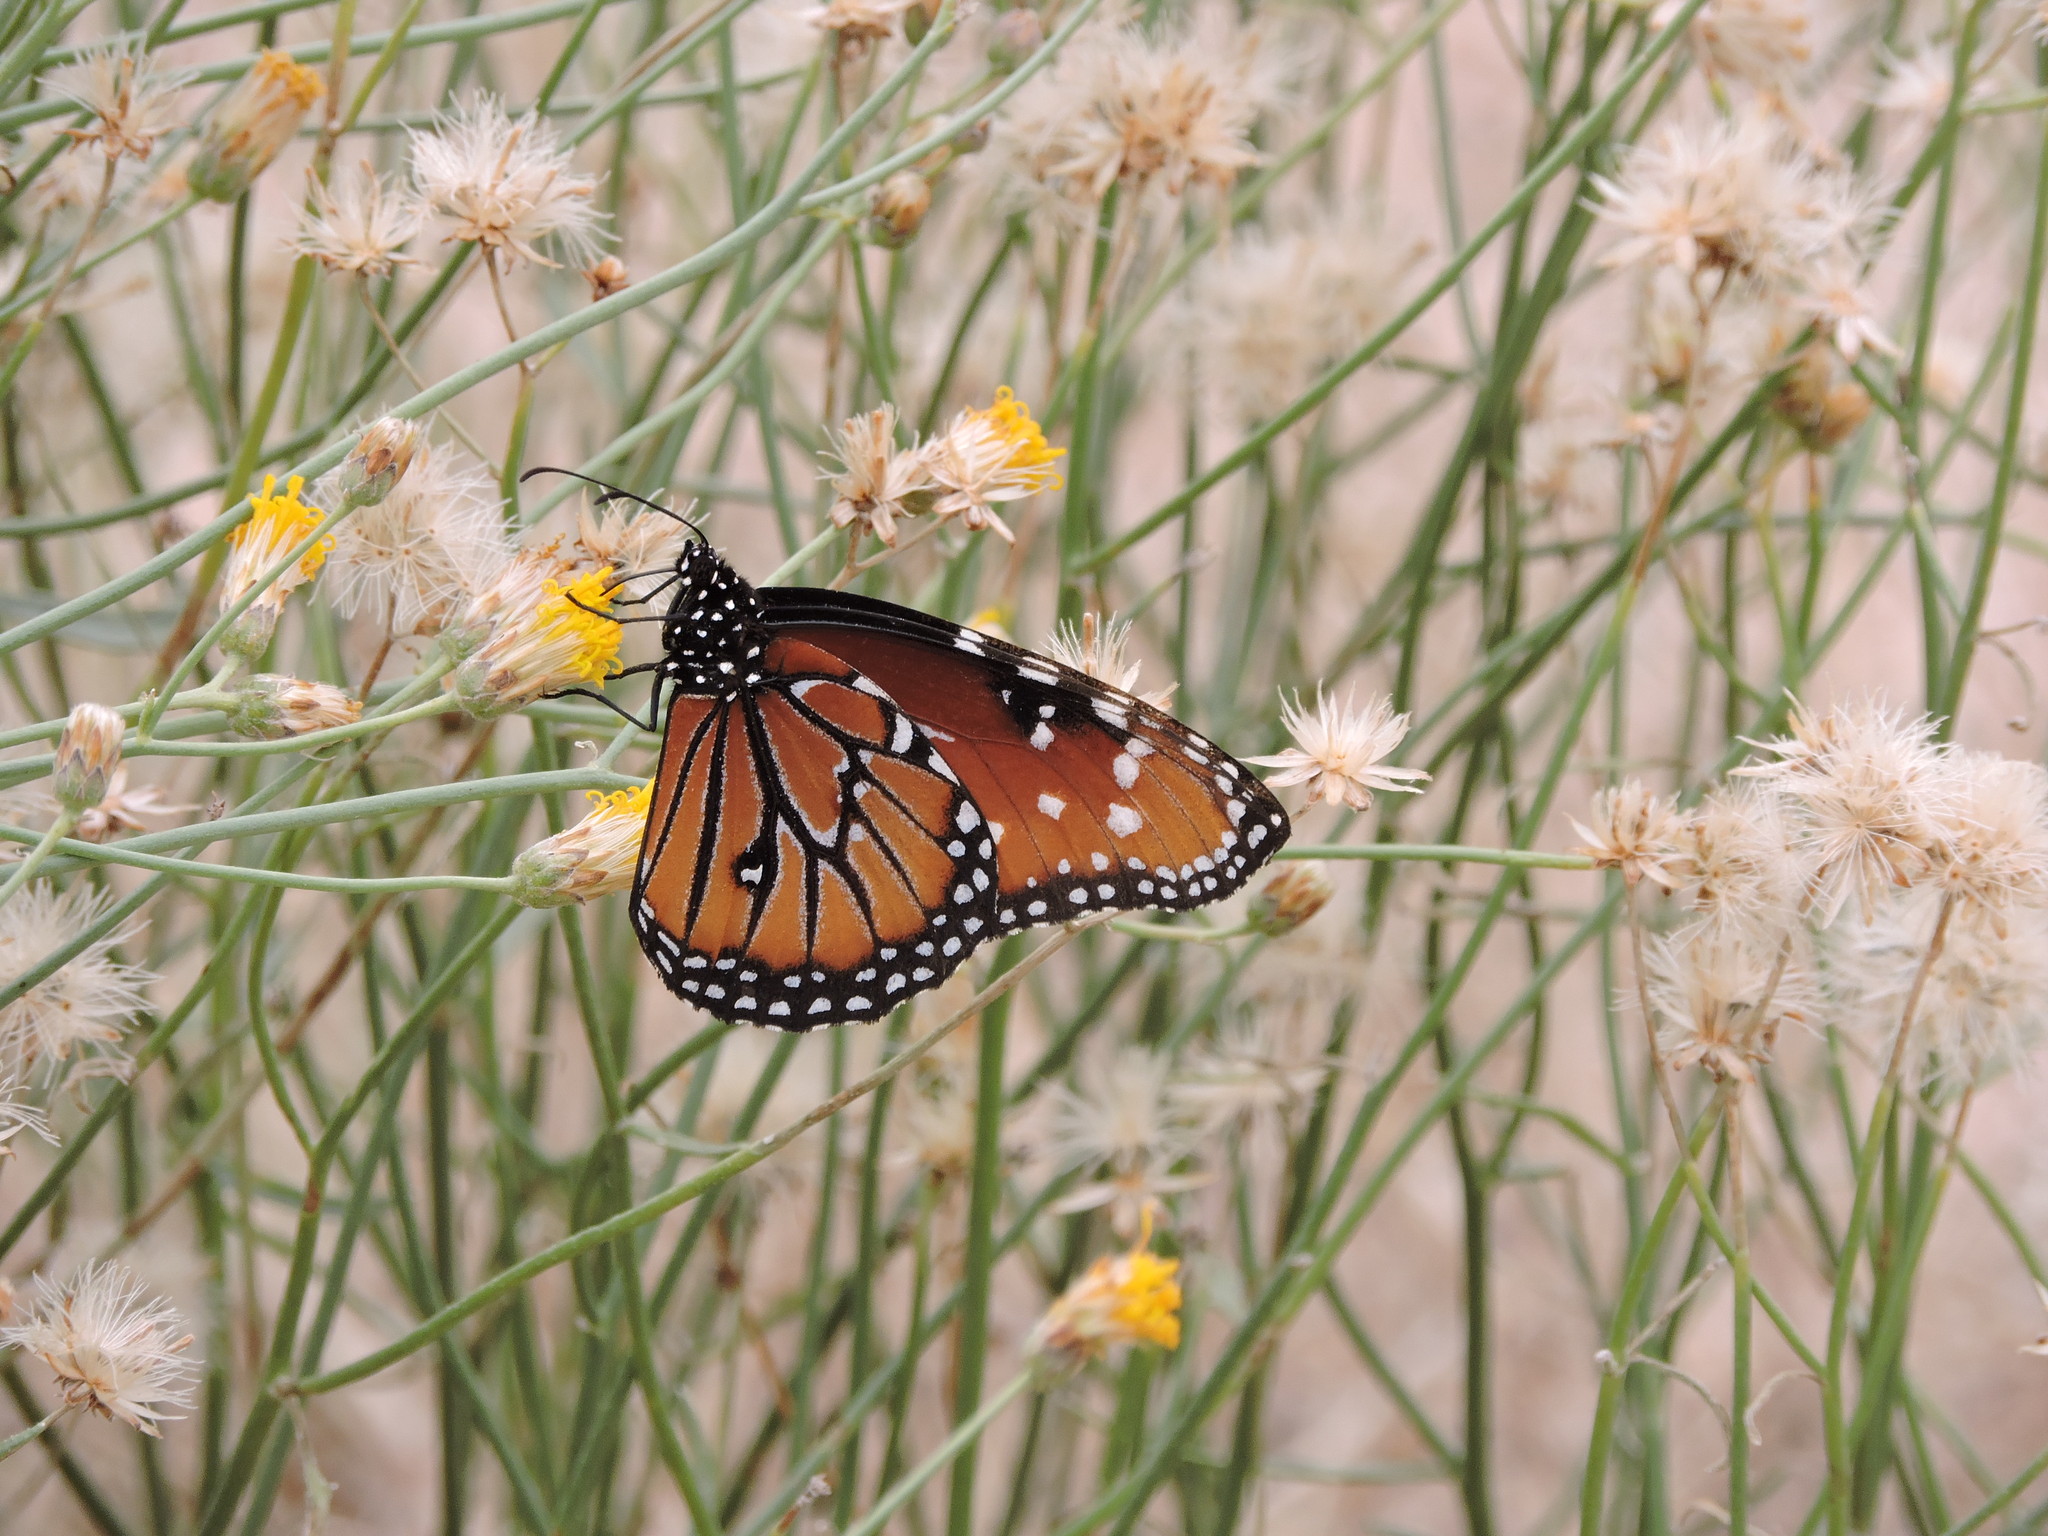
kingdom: Animalia
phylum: Arthropoda
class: Insecta
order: Lepidoptera
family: Nymphalidae
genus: Danaus
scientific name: Danaus gilippus
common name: Queen
